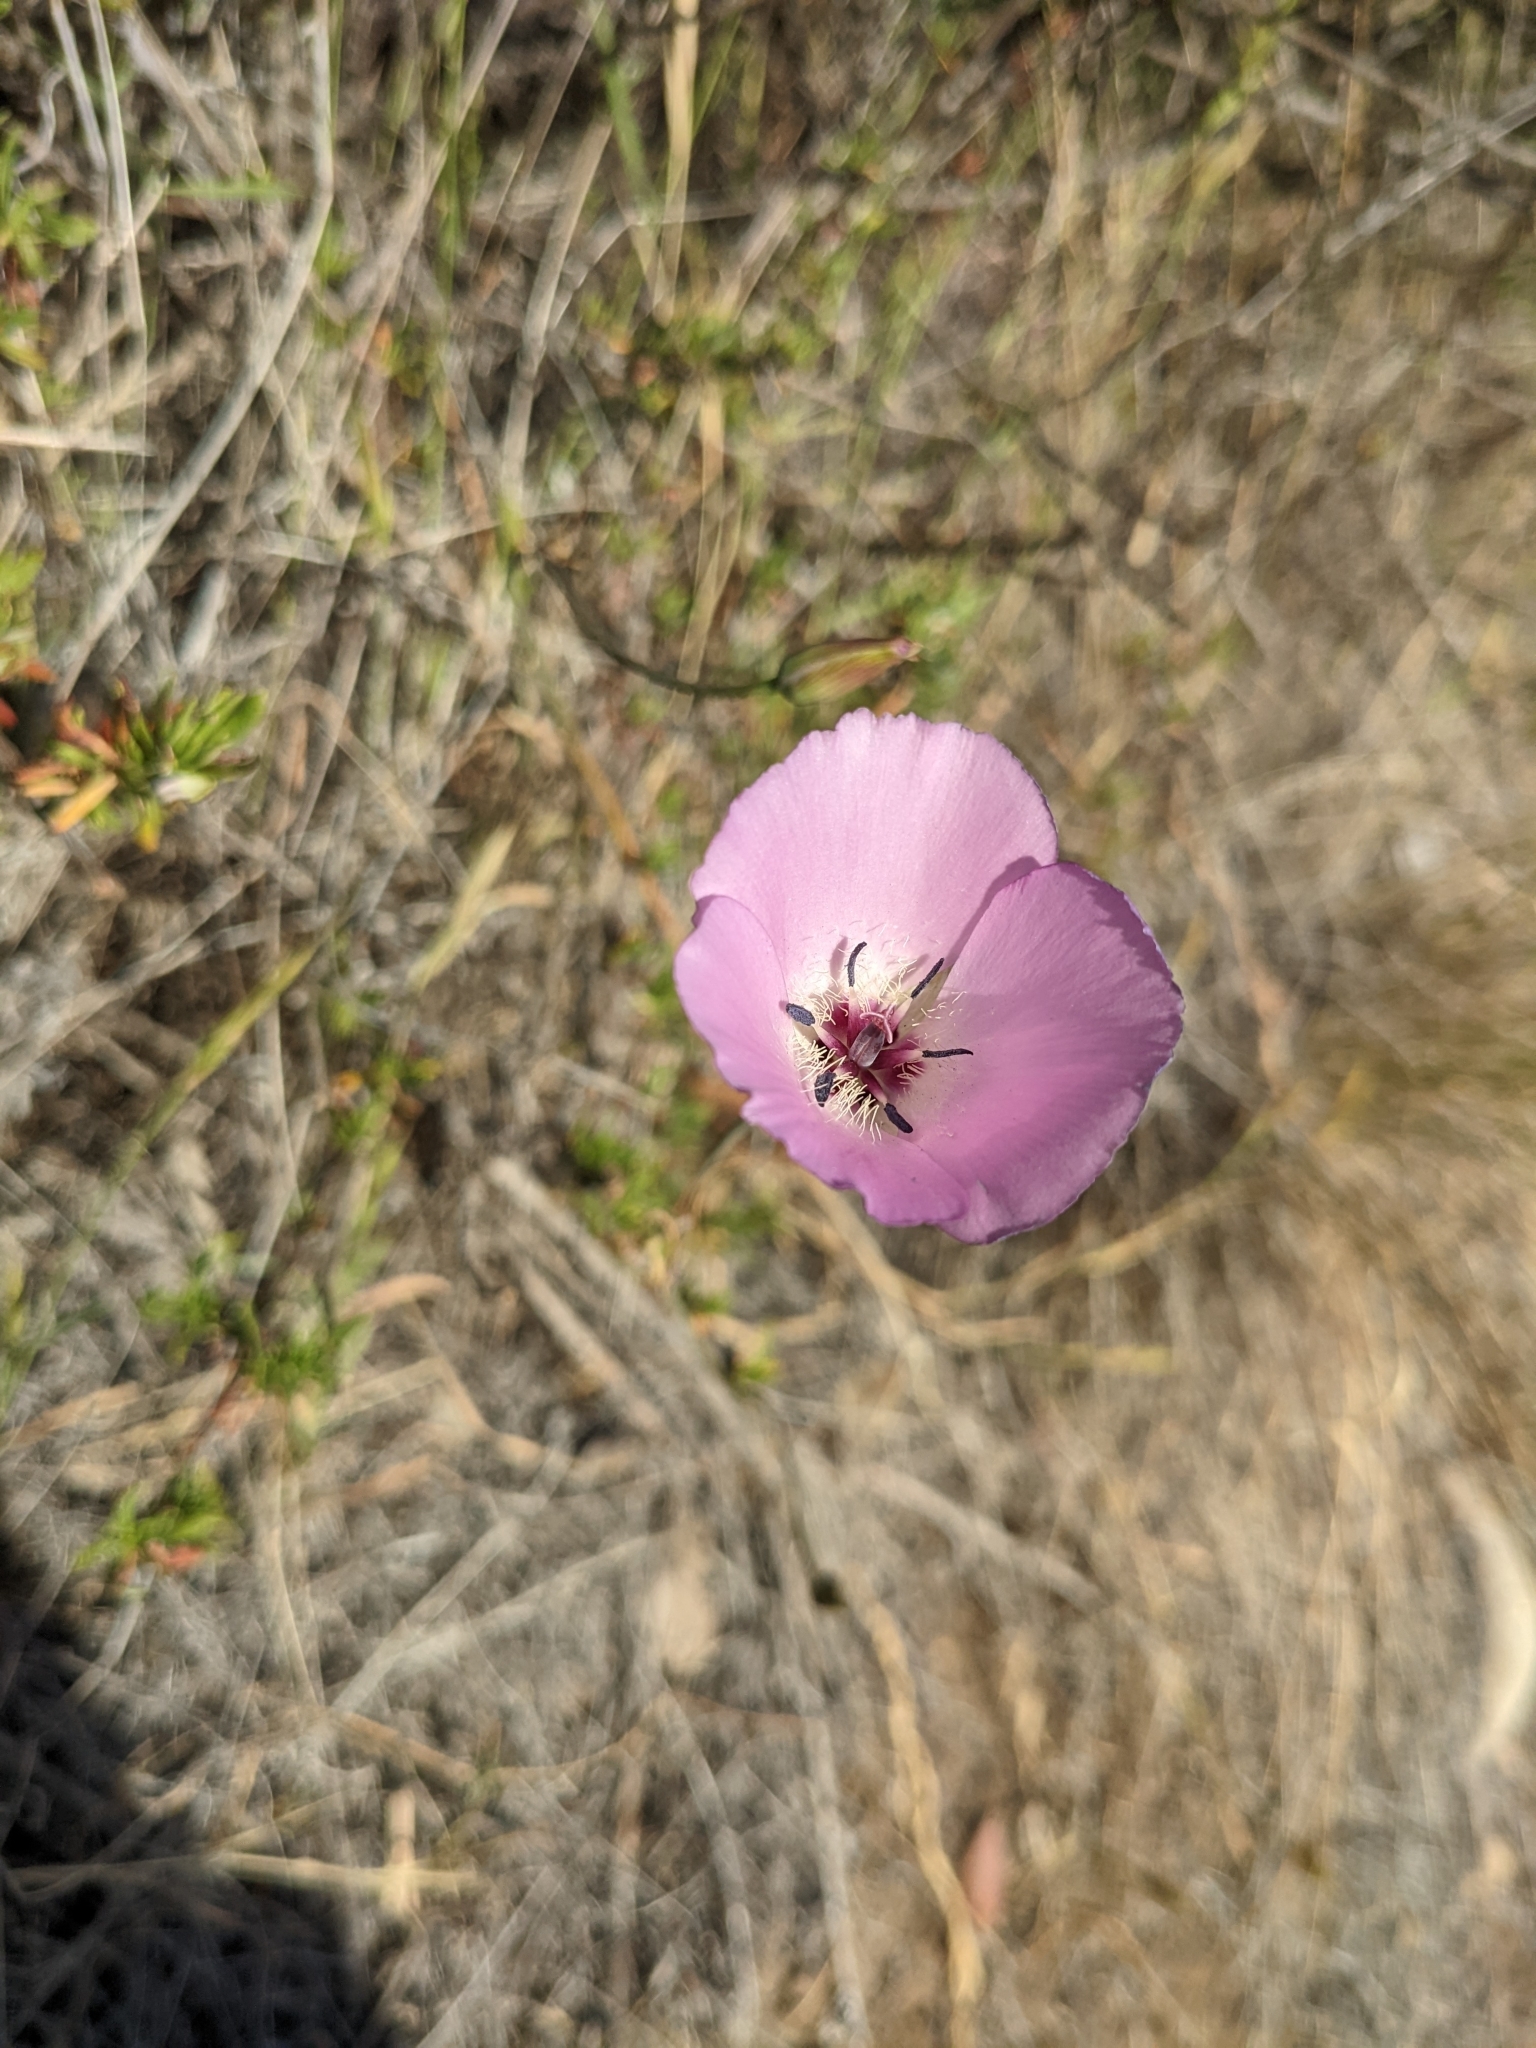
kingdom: Plantae
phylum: Tracheophyta
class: Liliopsida
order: Liliales
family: Liliaceae
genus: Calochortus
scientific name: Calochortus splendens
